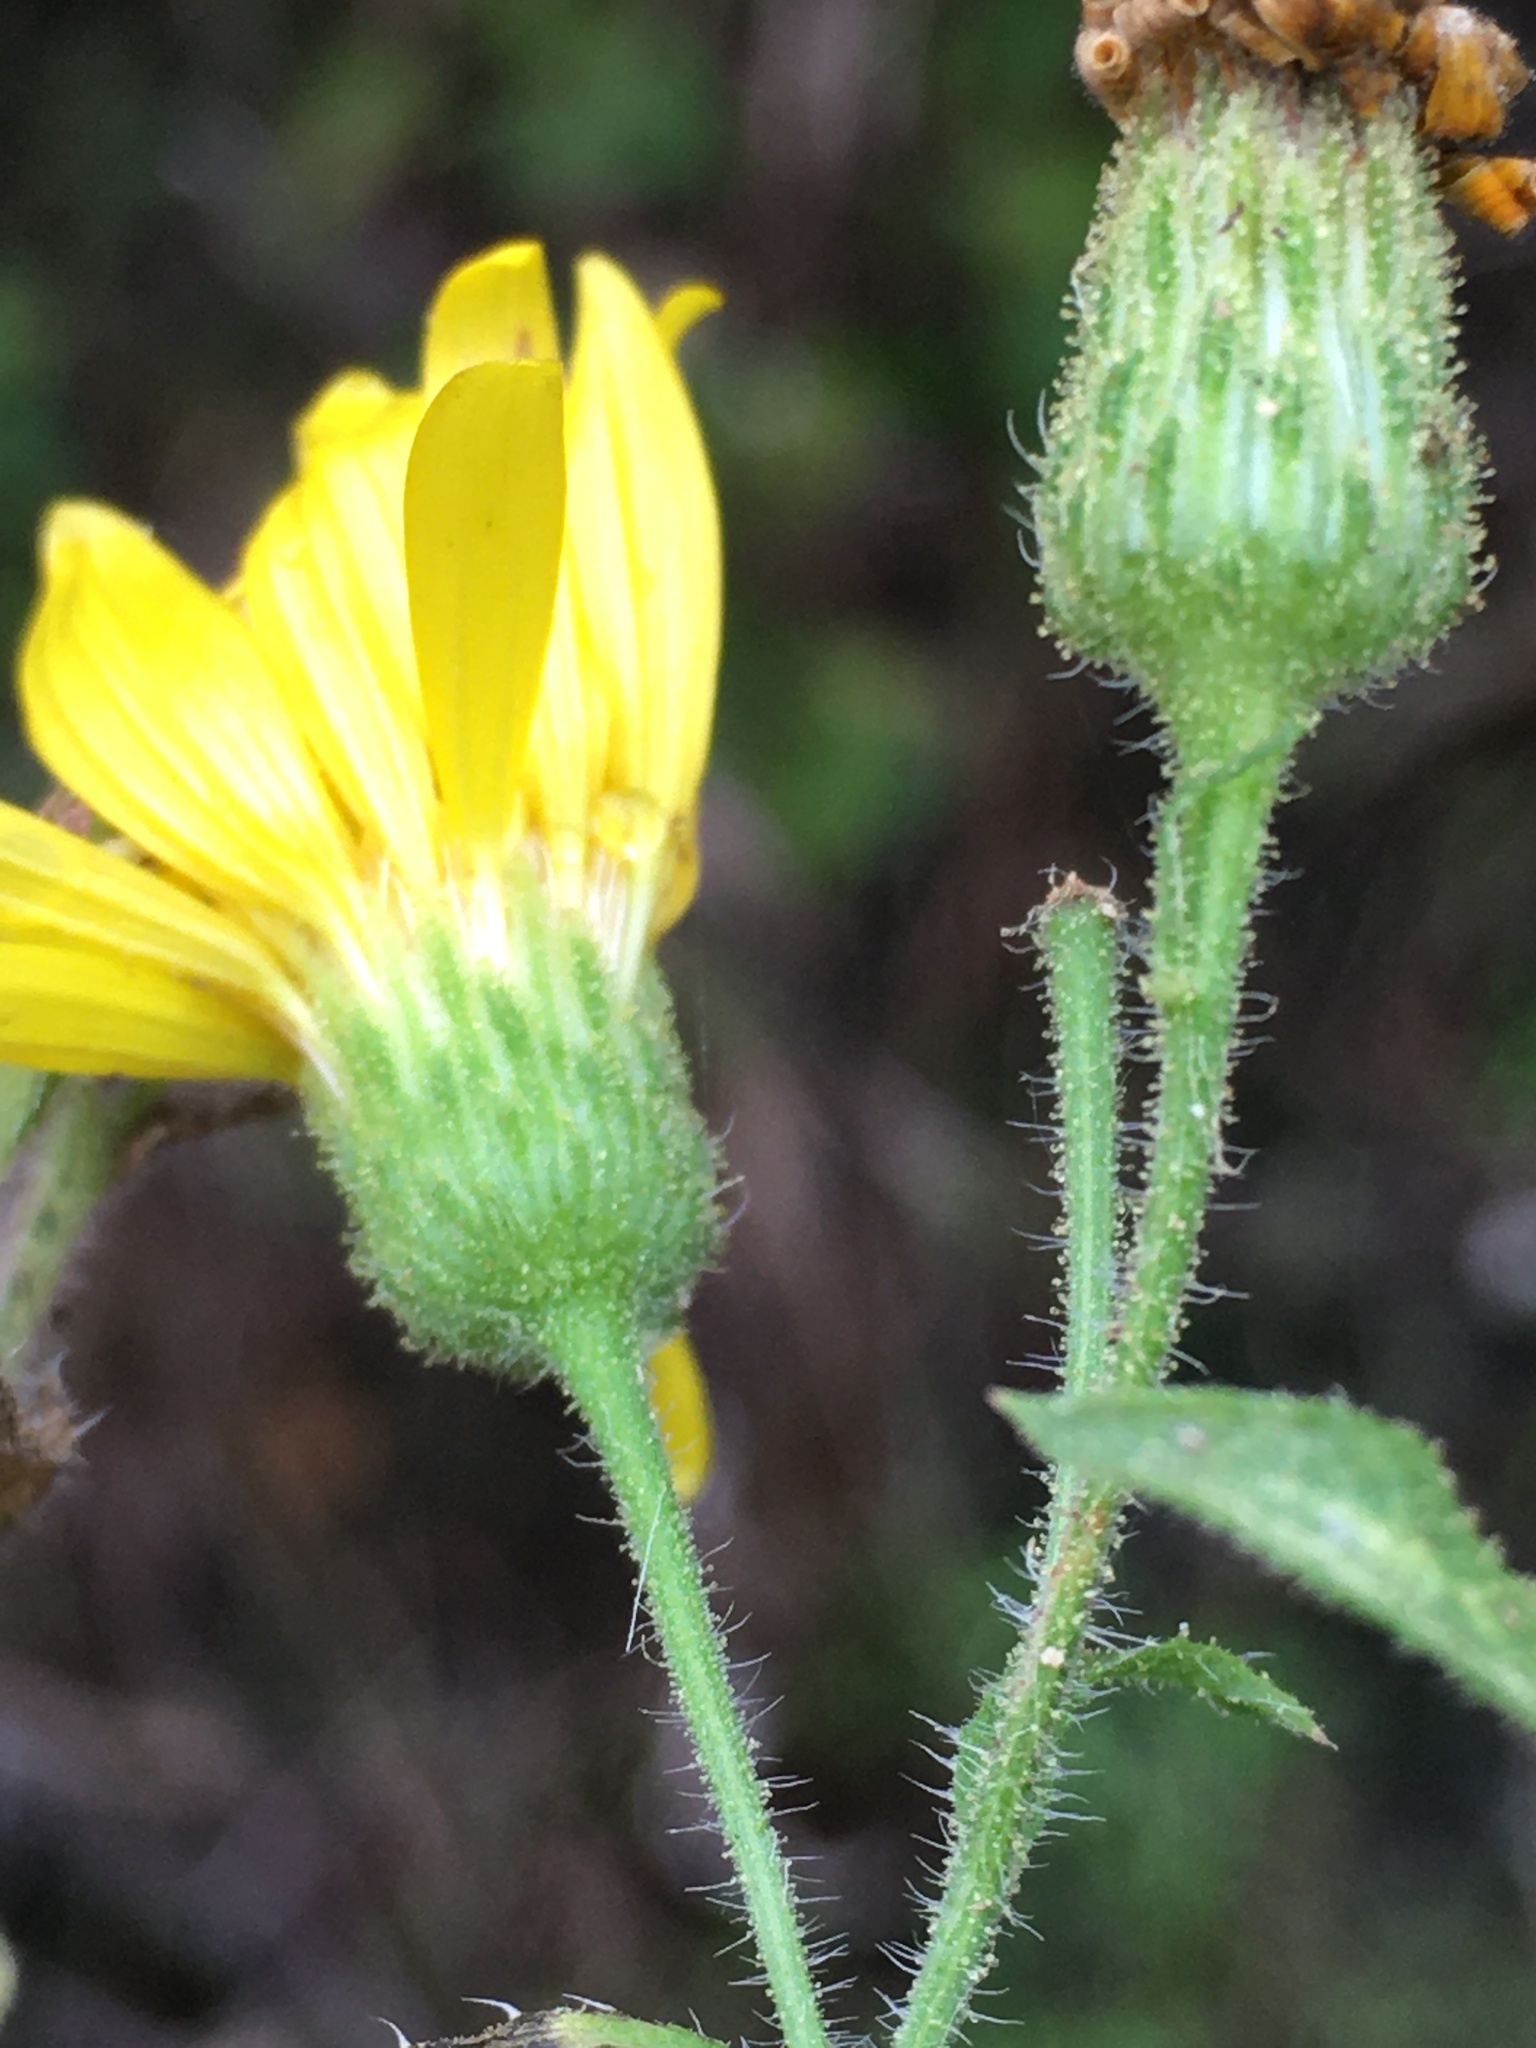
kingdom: Plantae
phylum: Tracheophyta
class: Magnoliopsida
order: Asterales
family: Asteraceae
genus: Chrysopsis
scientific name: Chrysopsis mariana
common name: Maryland golden-aster
